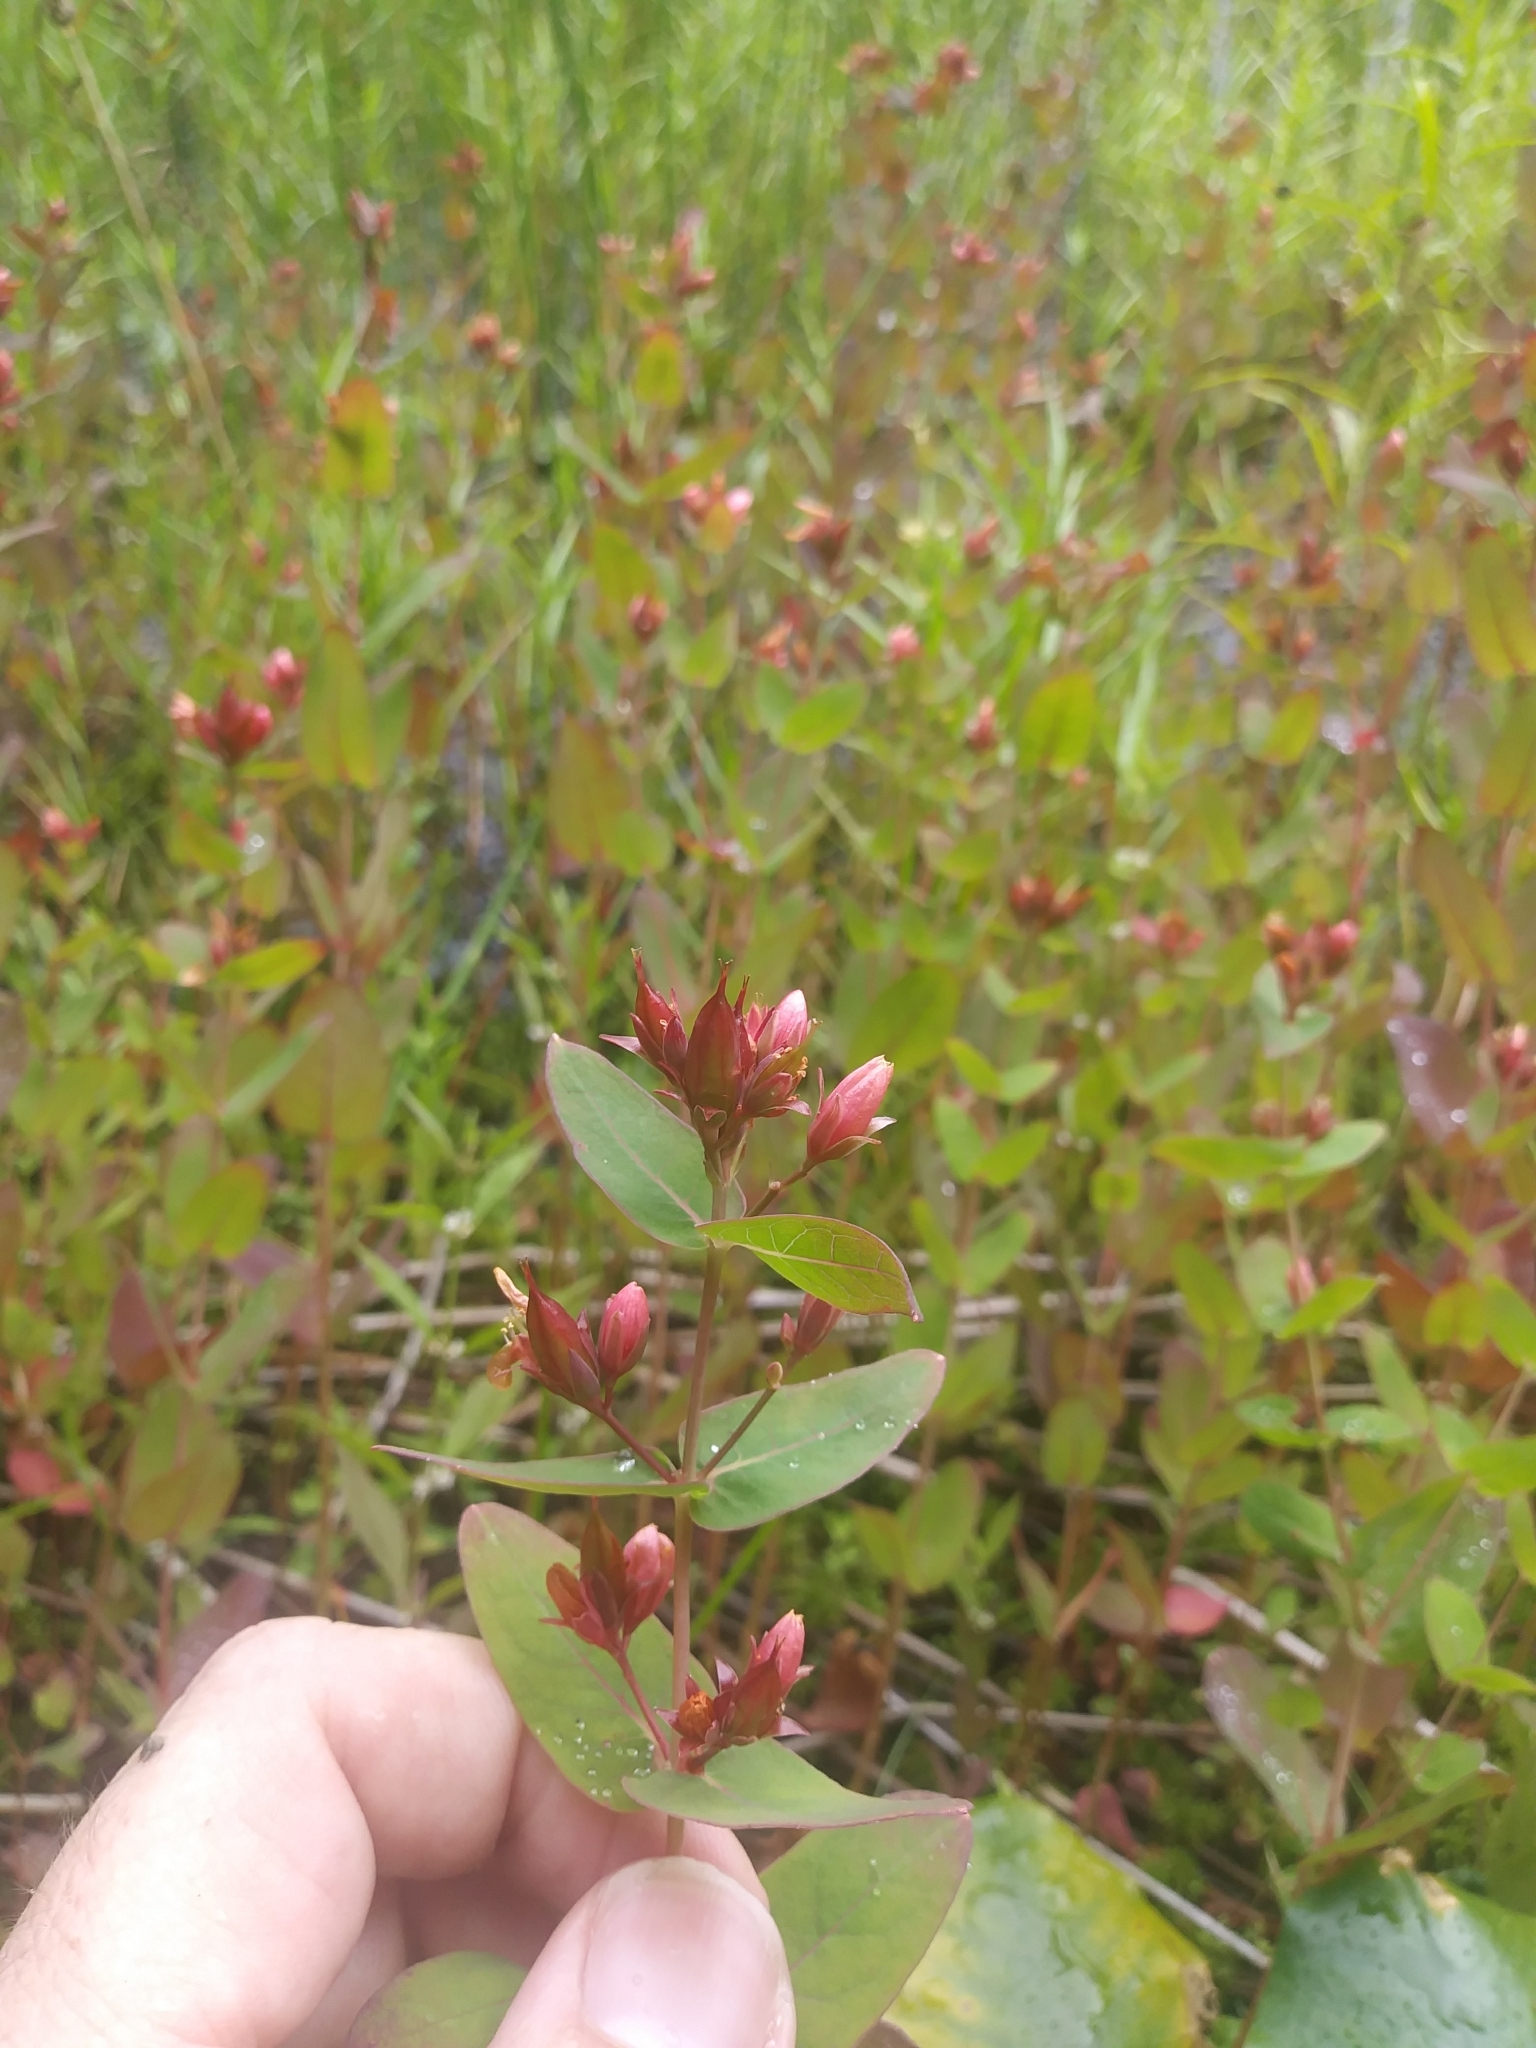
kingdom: Plantae
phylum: Tracheophyta
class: Magnoliopsida
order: Malpighiales
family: Hypericaceae
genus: Triadenum
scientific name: Triadenum virginicum
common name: Marsh st. john's-wort
